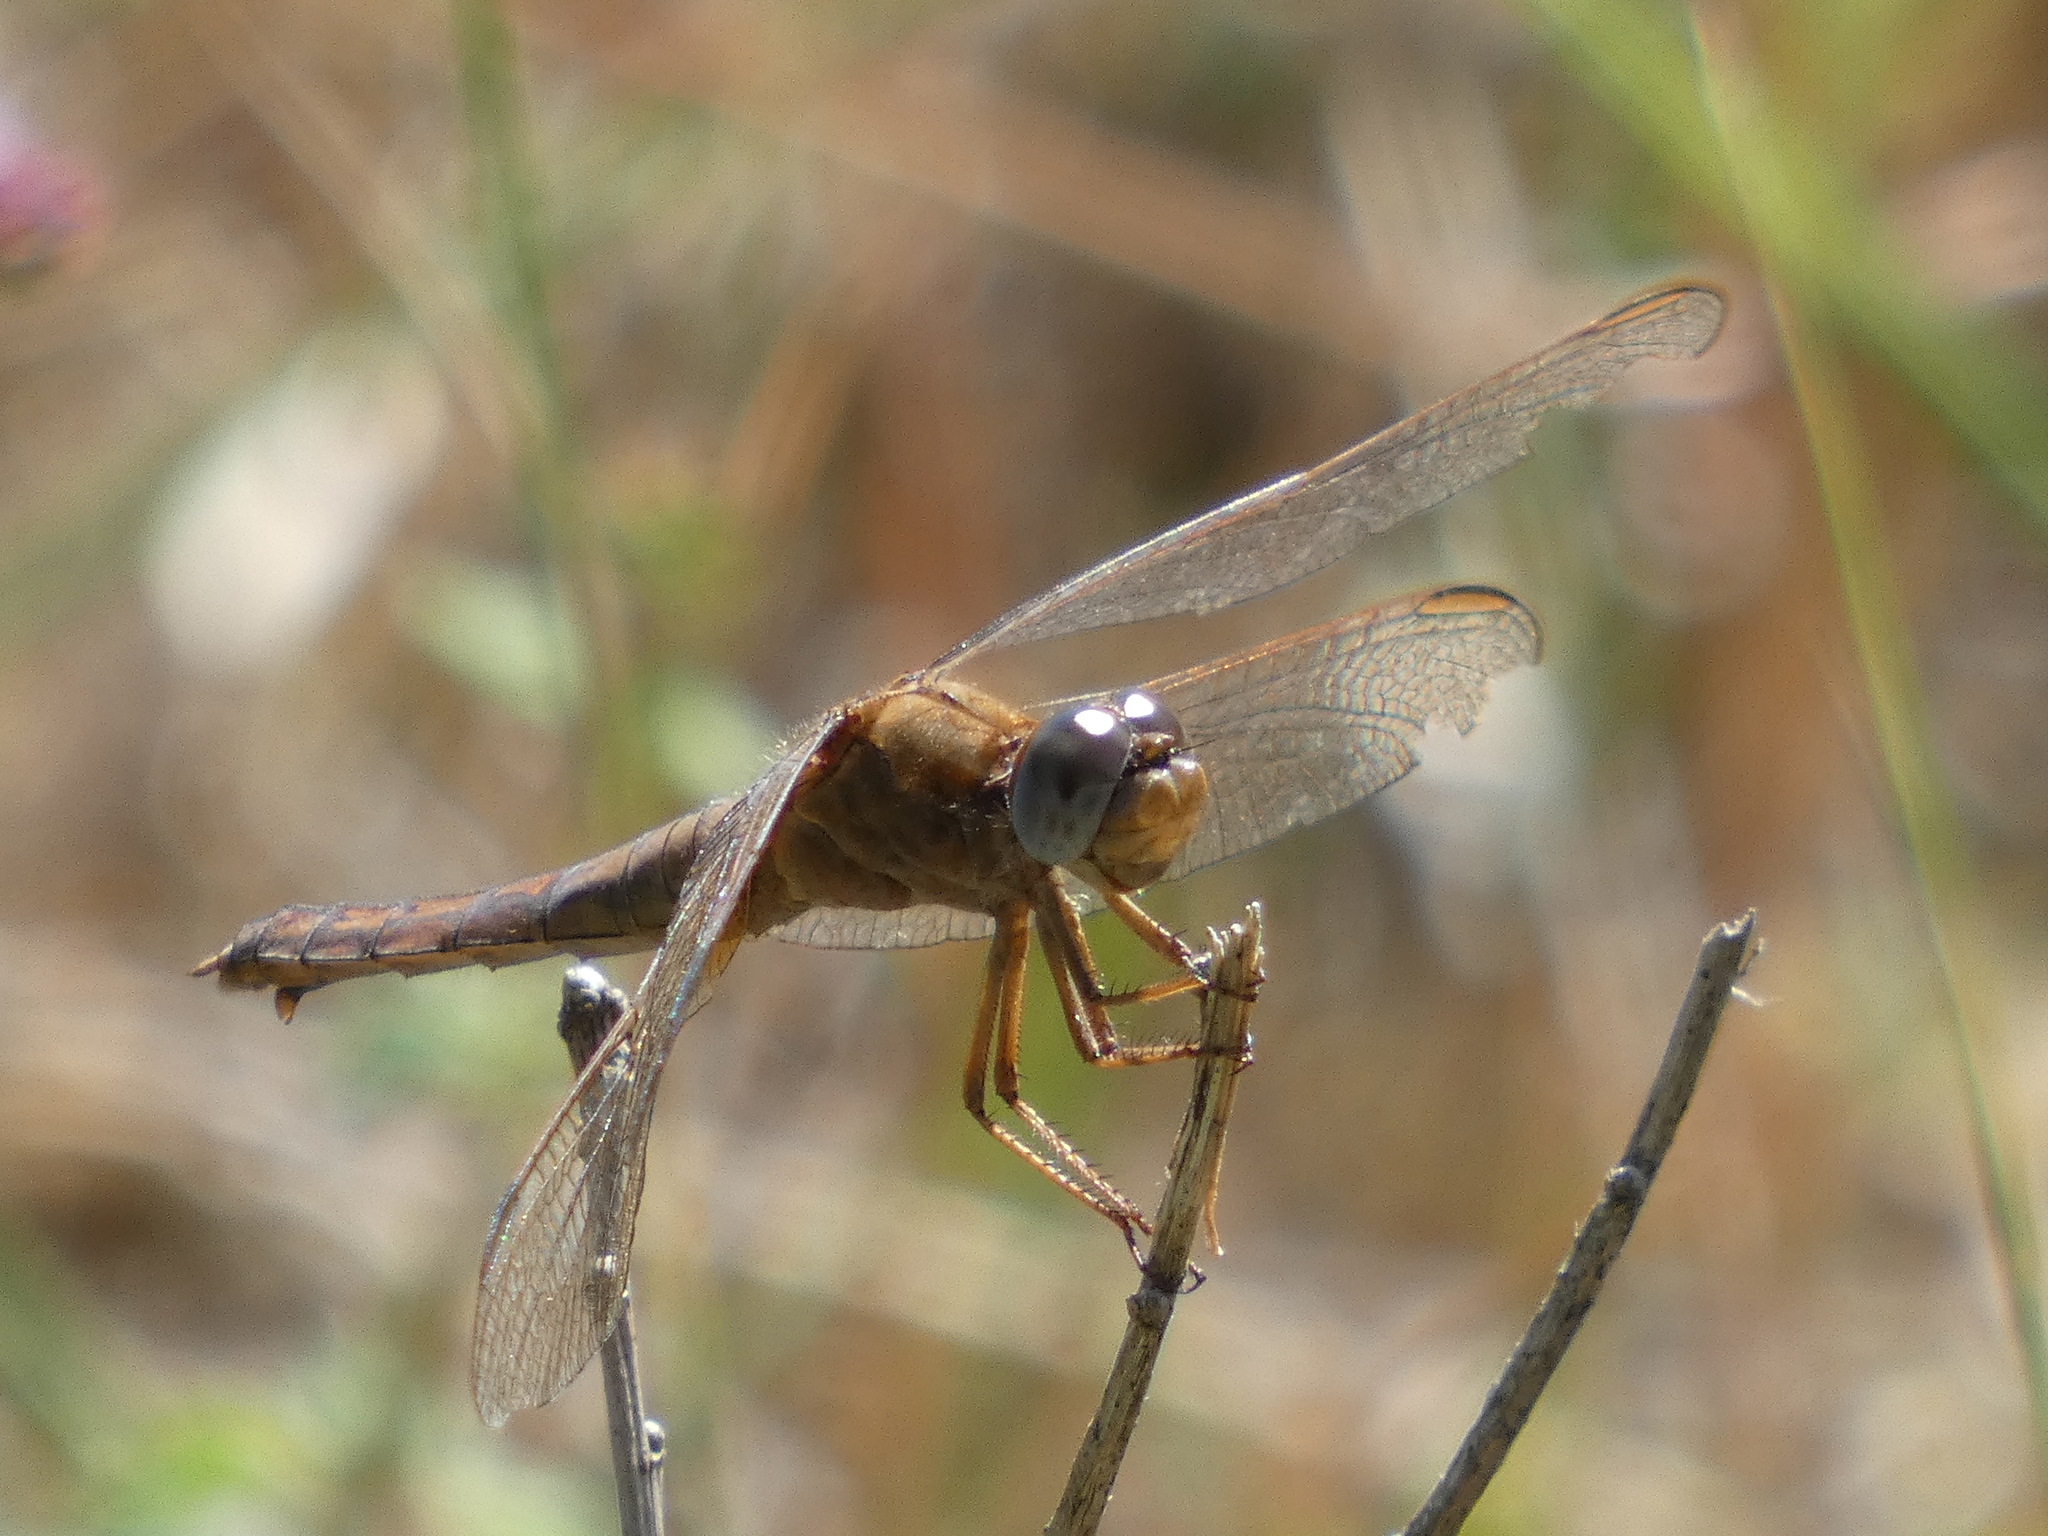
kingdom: Animalia
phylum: Arthropoda
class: Insecta
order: Odonata
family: Libellulidae
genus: Crocothemis
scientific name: Crocothemis erythraea
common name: Scarlet dragonfly
